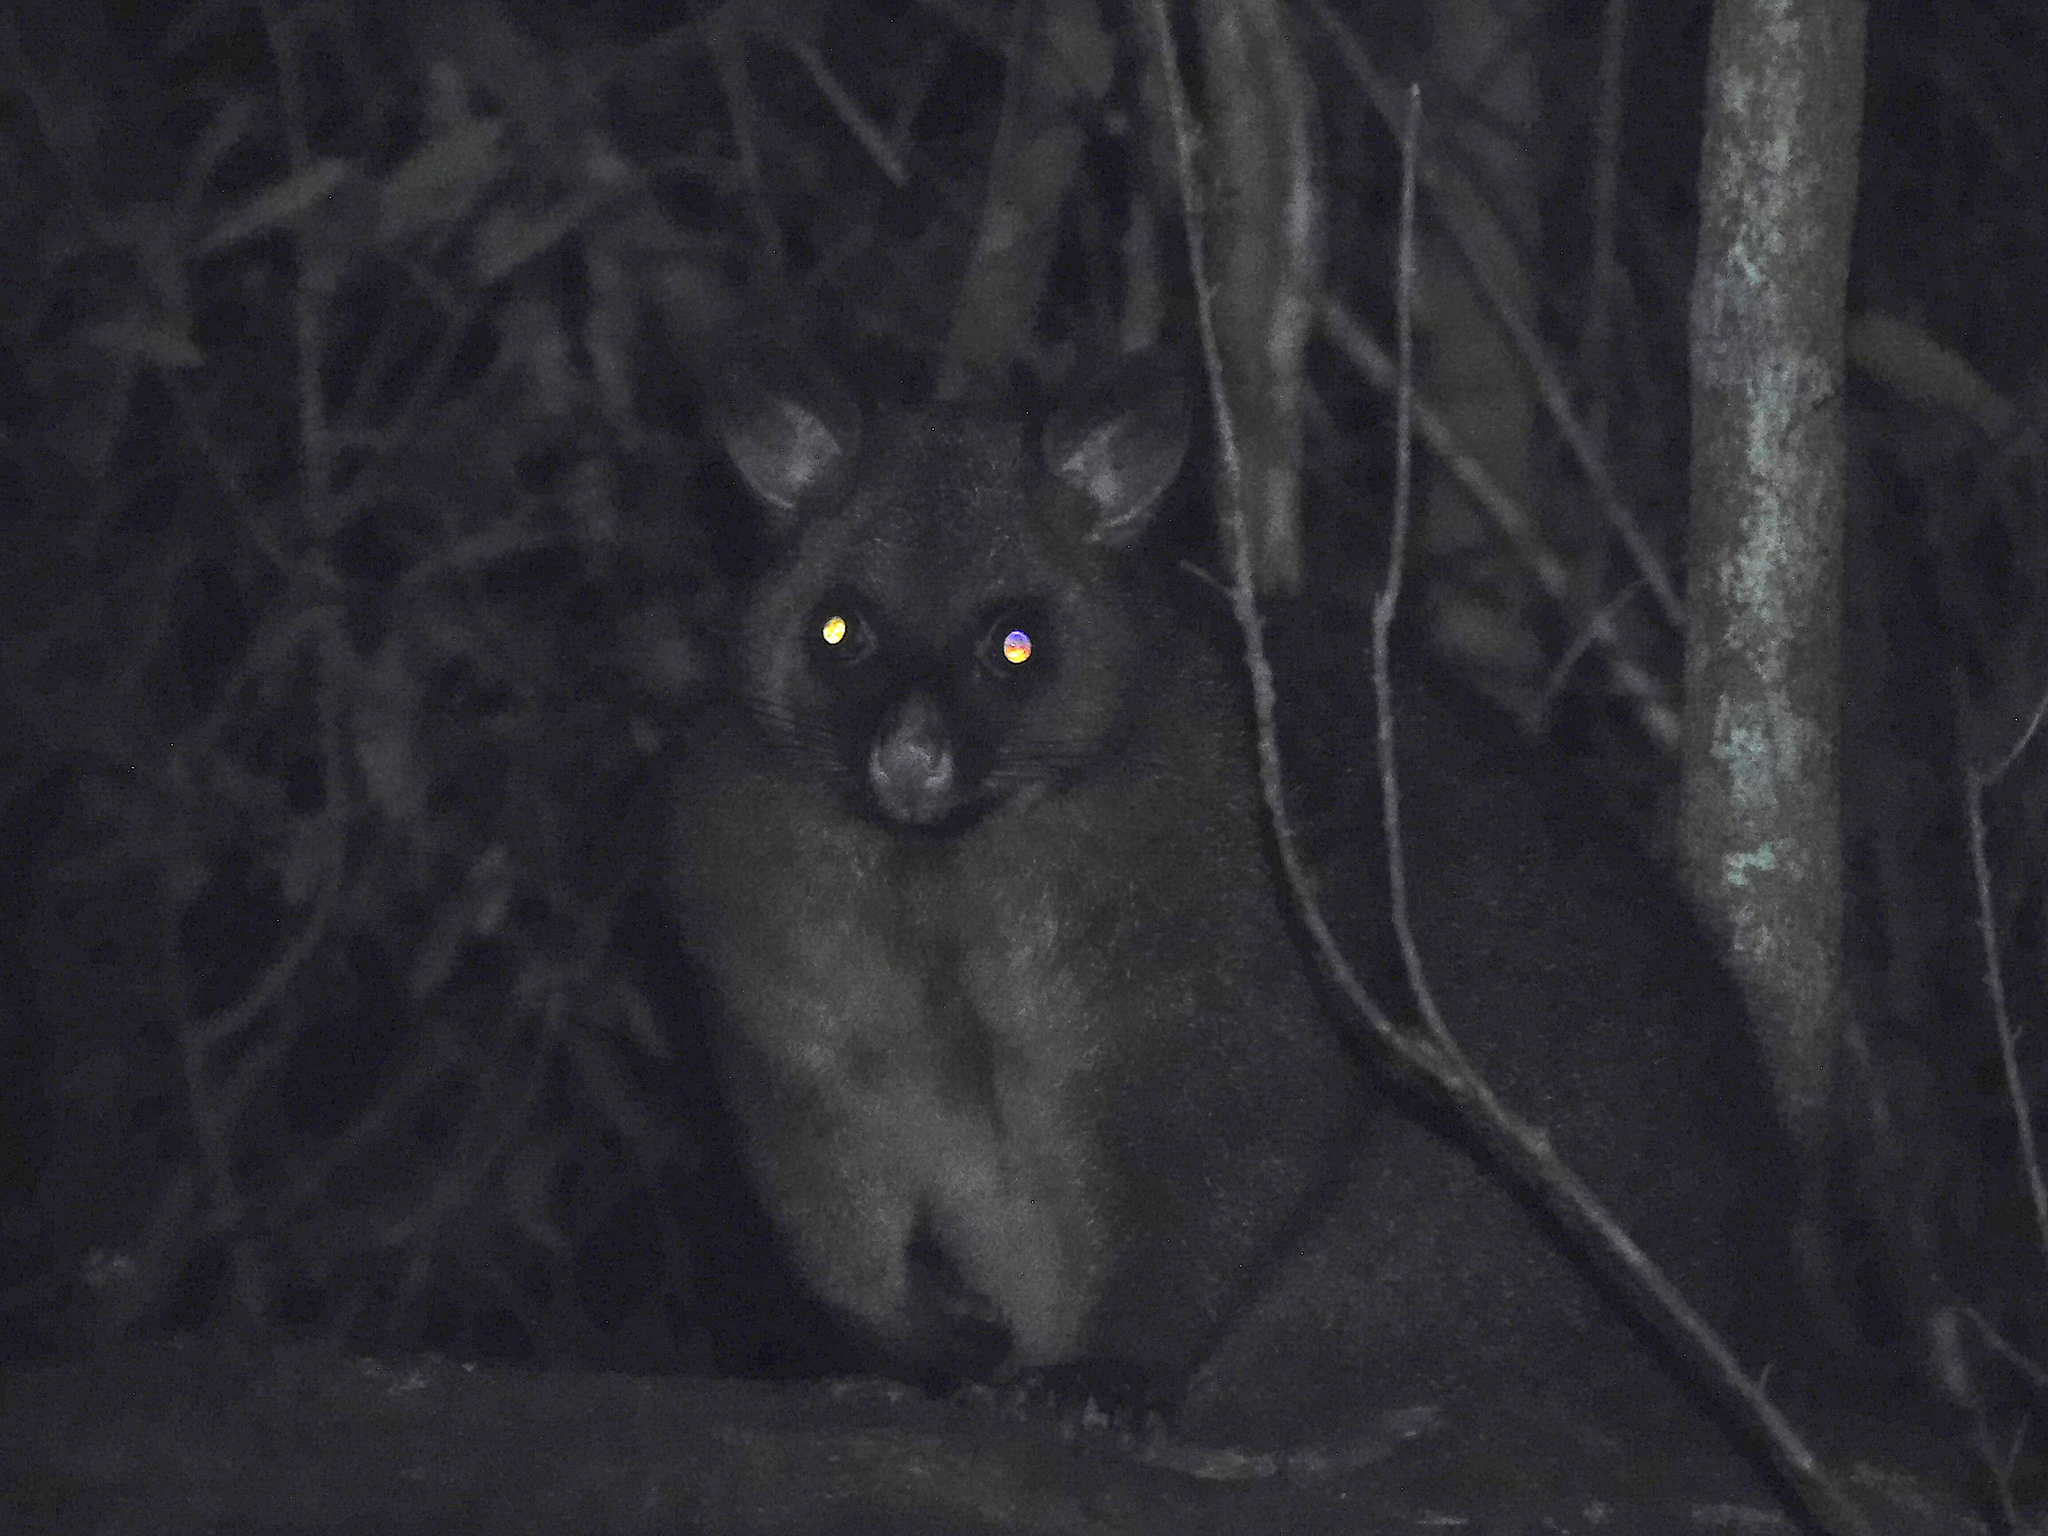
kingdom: Animalia
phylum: Chordata
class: Mammalia
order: Diprotodontia
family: Phalangeridae
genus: Trichosurus
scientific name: Trichosurus vulpecula
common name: Common brushtail
